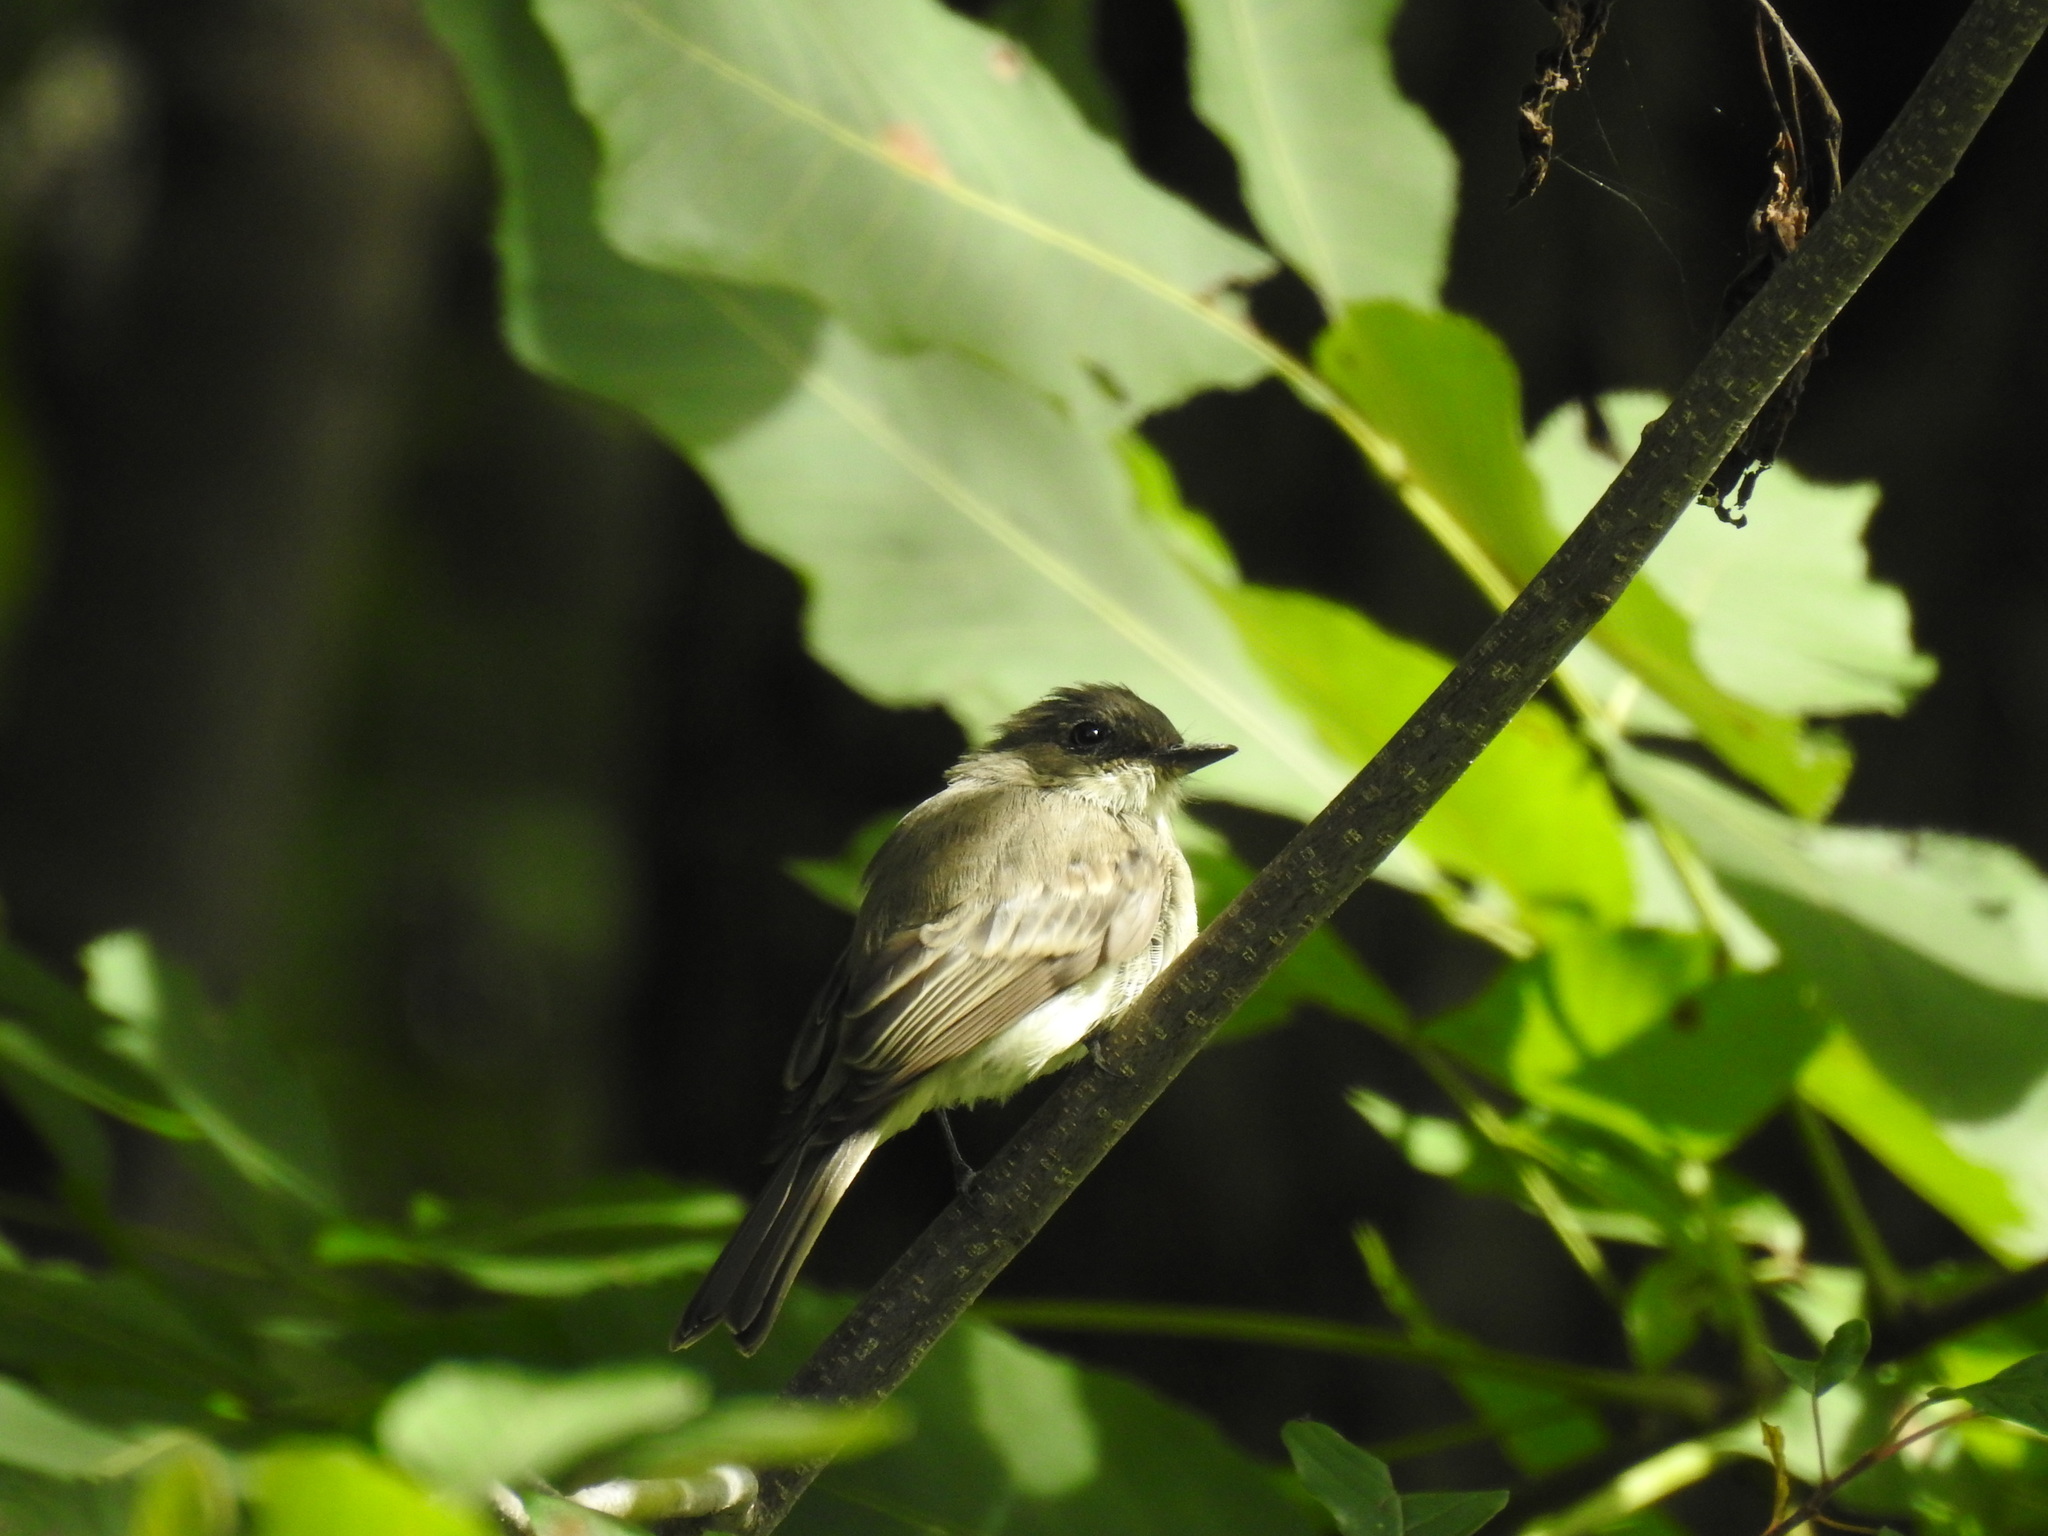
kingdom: Animalia
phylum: Chordata
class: Aves
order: Passeriformes
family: Tyrannidae
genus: Sayornis
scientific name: Sayornis phoebe
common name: Eastern phoebe
